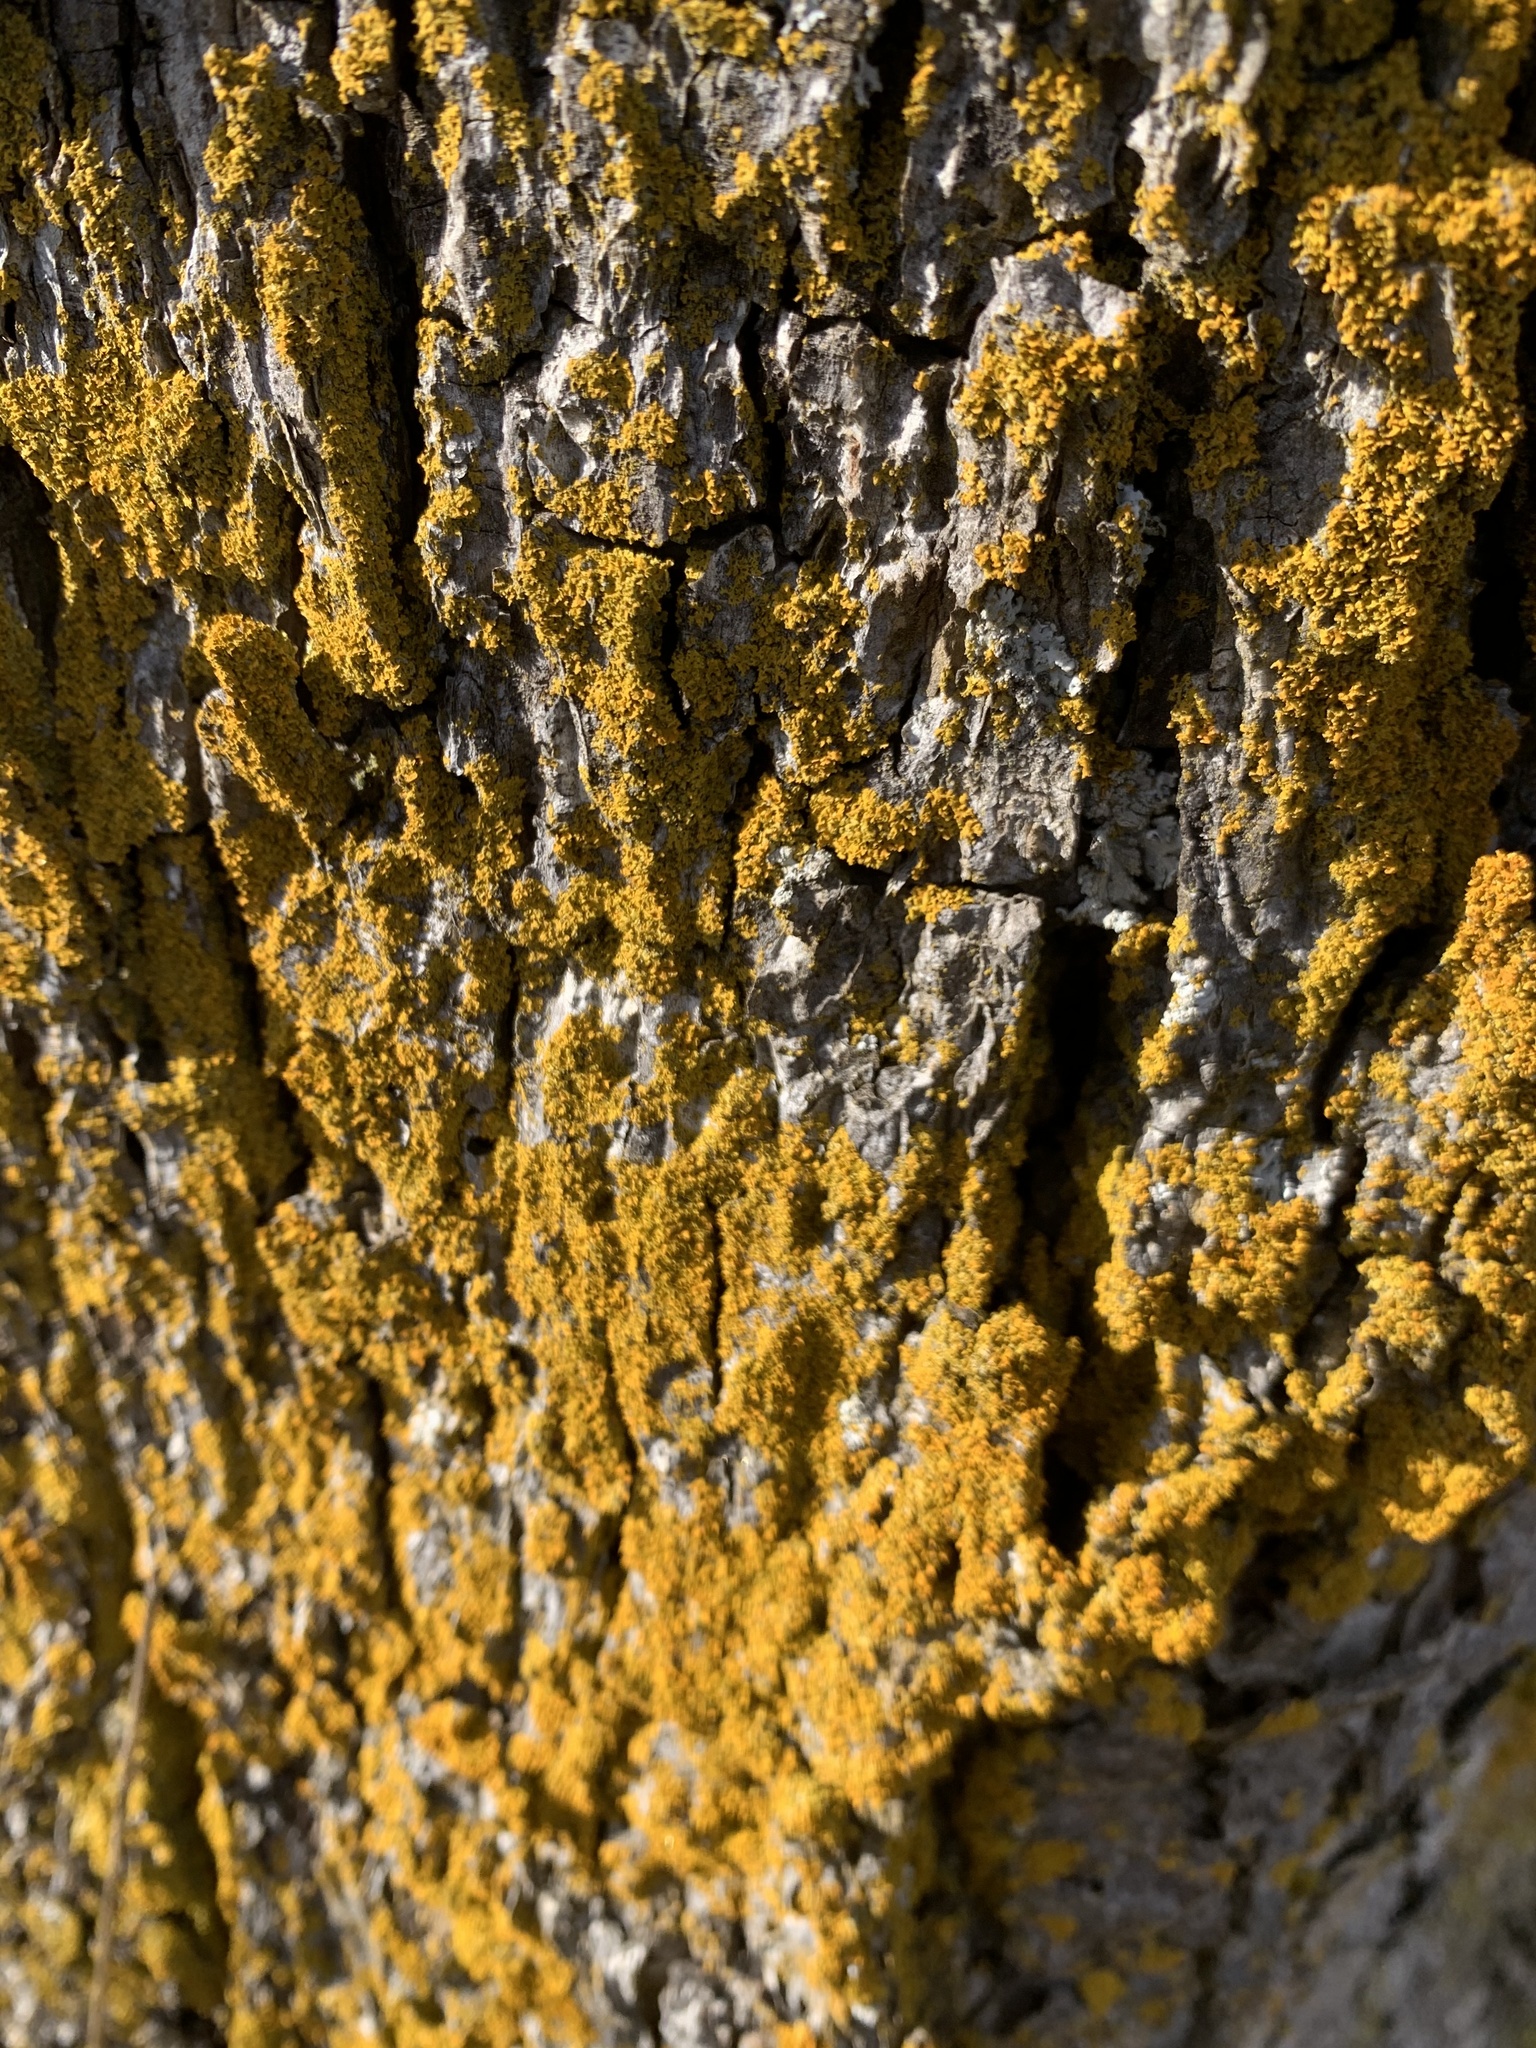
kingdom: Fungi
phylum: Ascomycota
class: Candelariomycetes
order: Candelariales
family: Candelariaceae
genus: Candelaria
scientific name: Candelaria concolor
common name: Candleflame lichen
